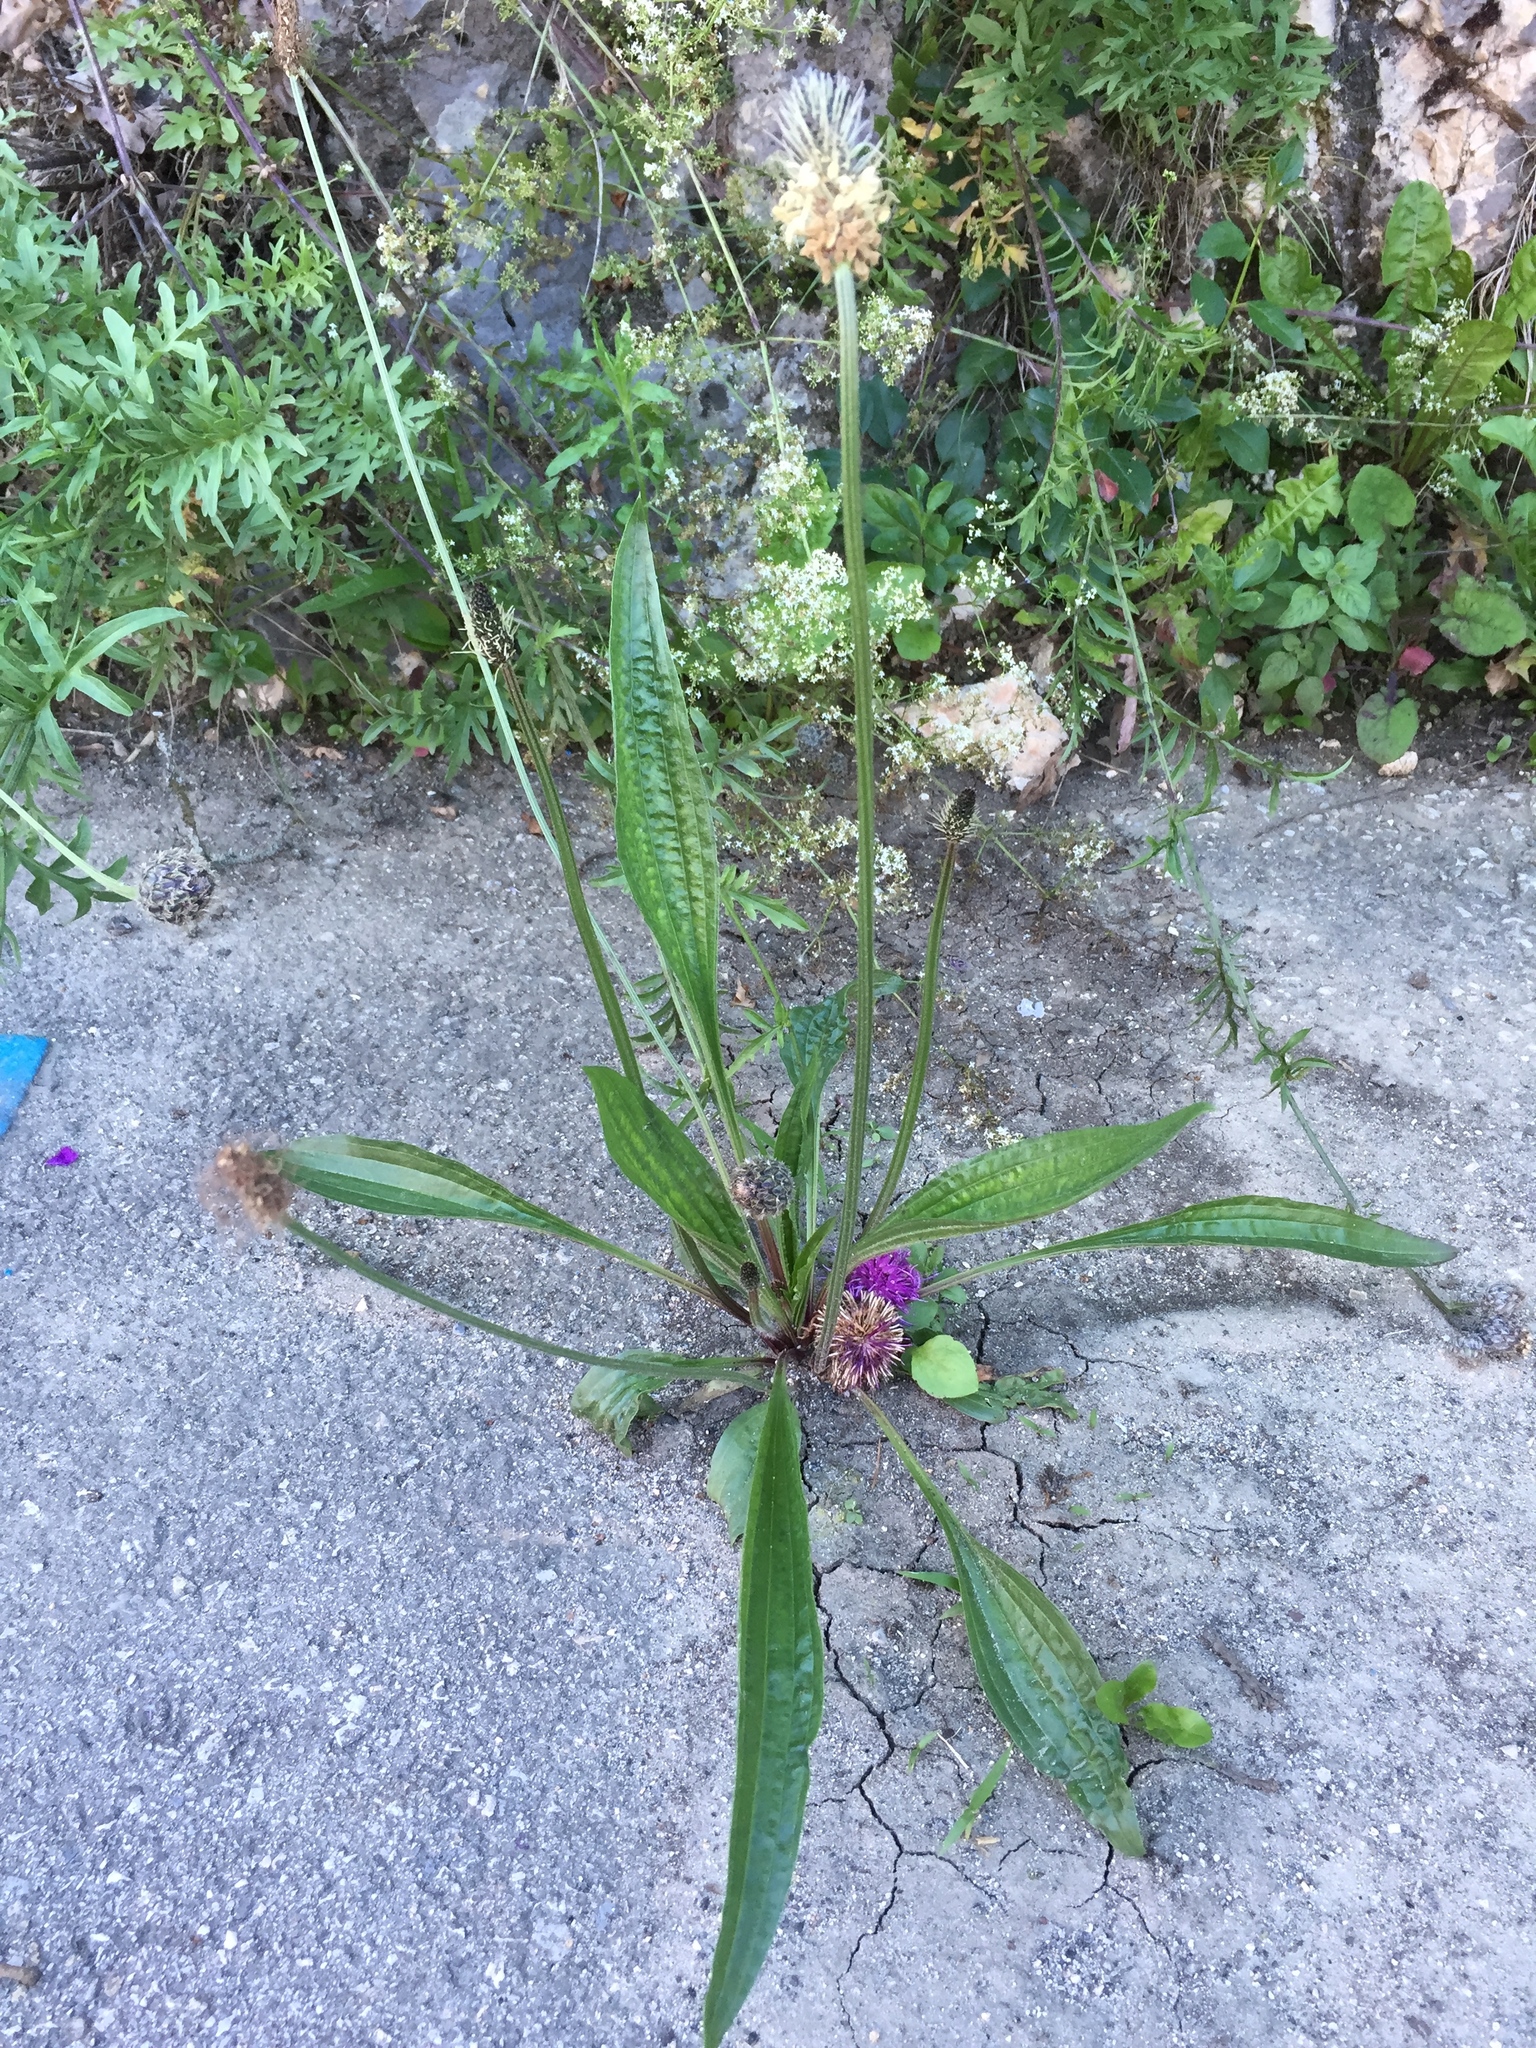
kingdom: Plantae
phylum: Tracheophyta
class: Magnoliopsida
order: Lamiales
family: Plantaginaceae
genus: Plantago
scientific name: Plantago lanceolata
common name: Ribwort plantain
